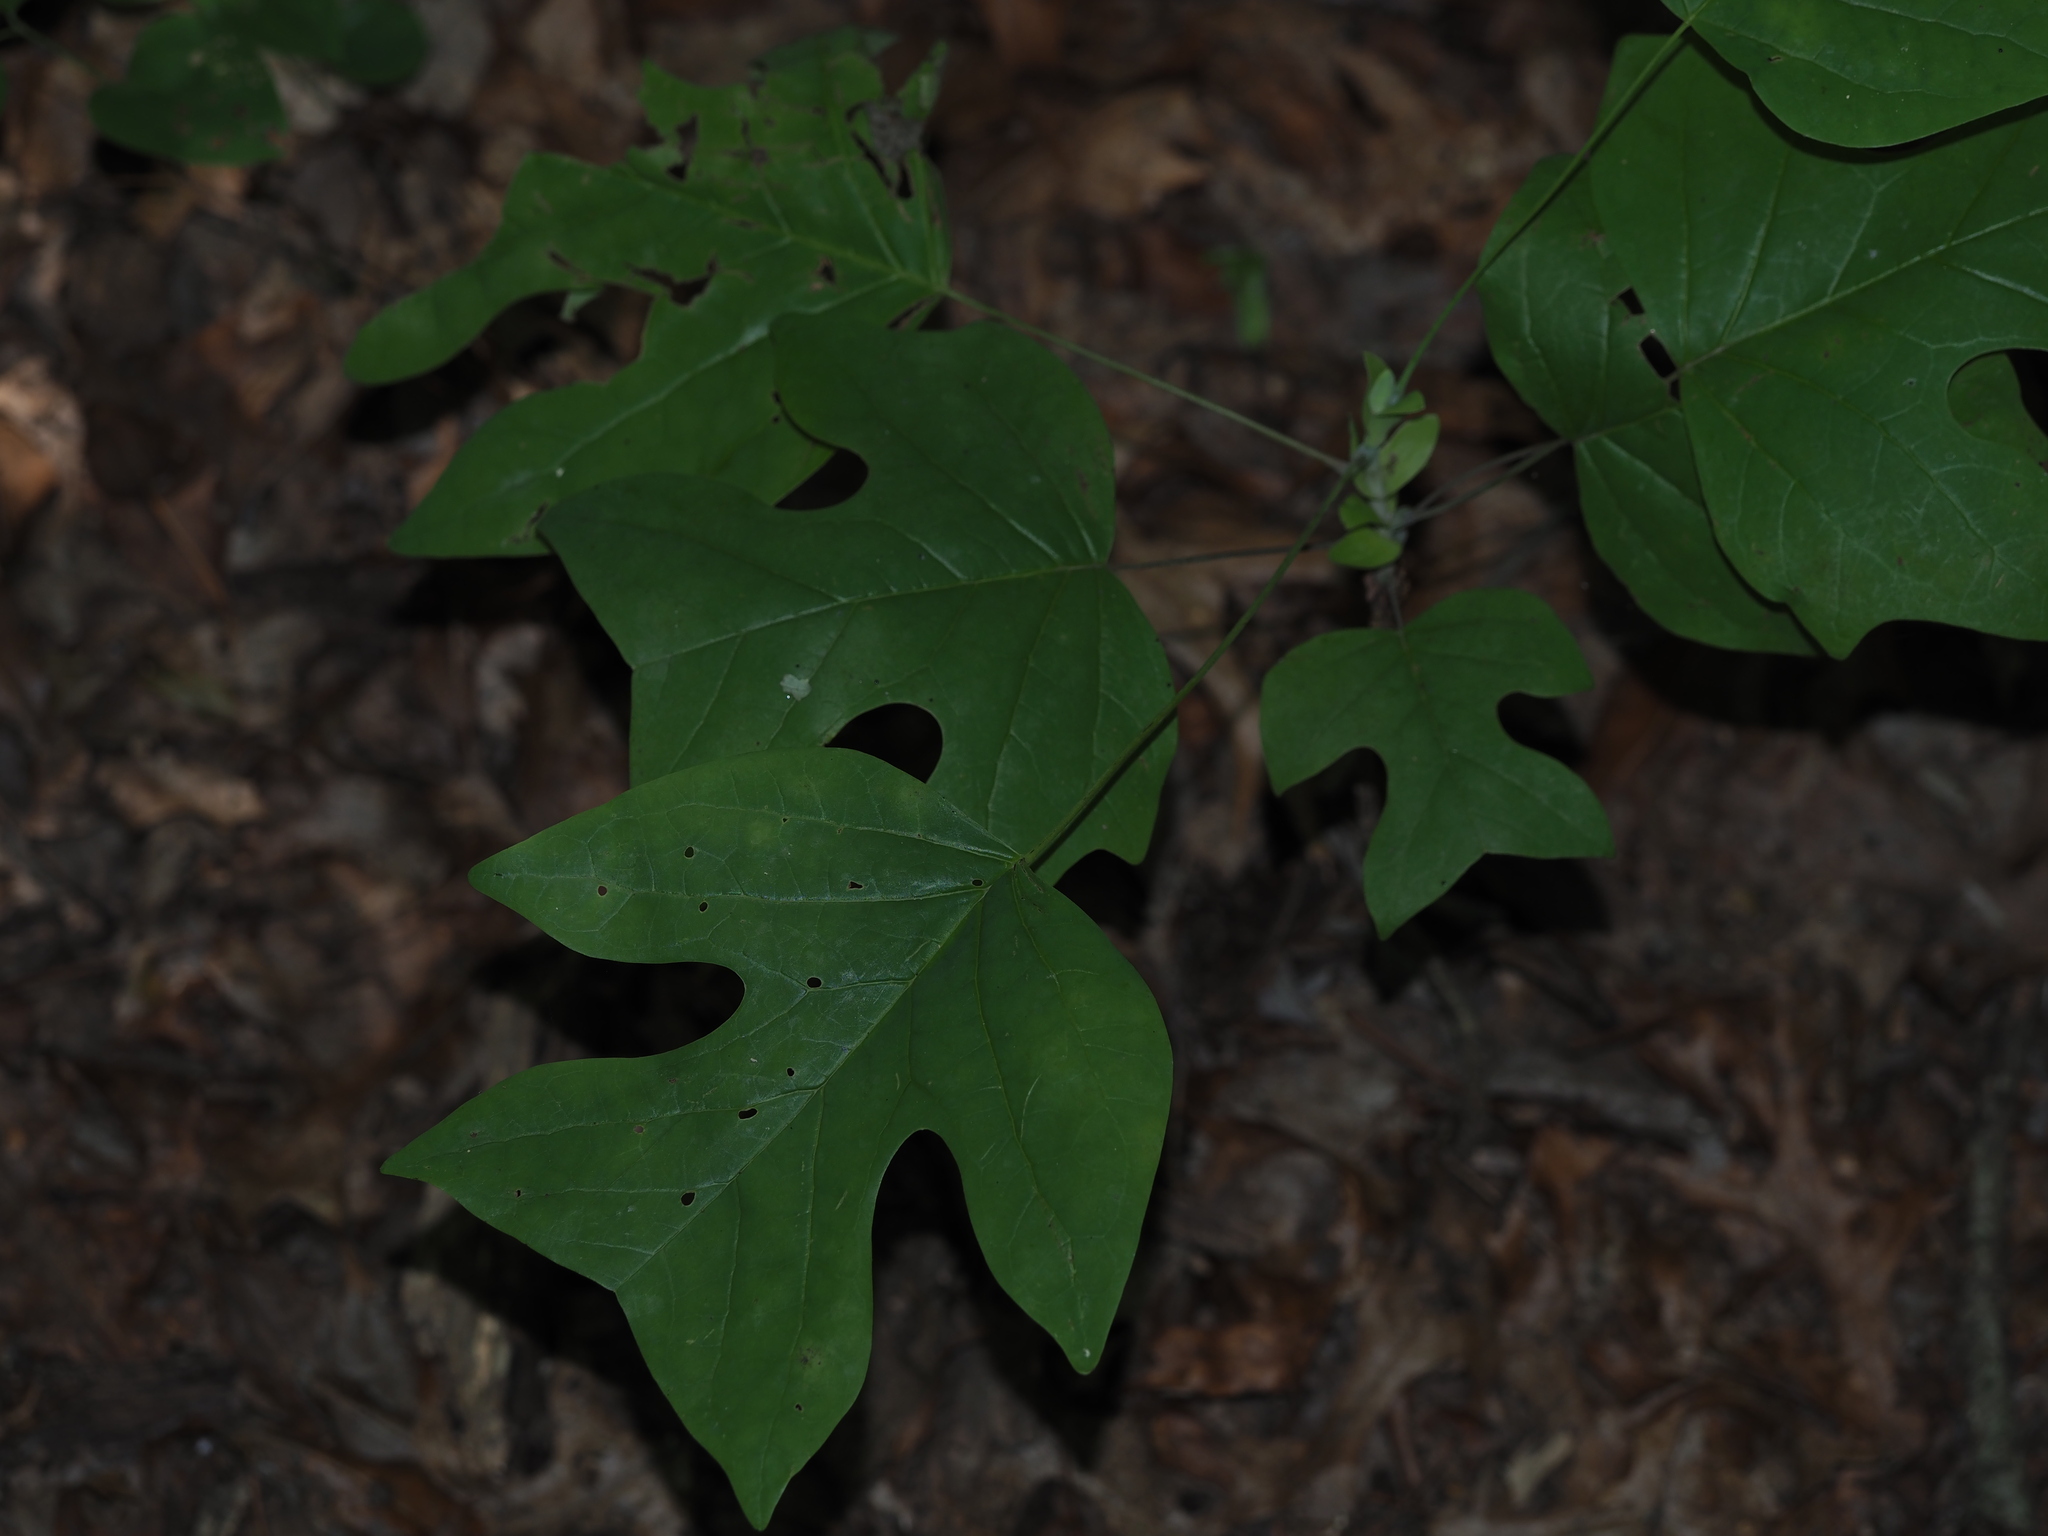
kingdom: Plantae
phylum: Tracheophyta
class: Magnoliopsida
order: Magnoliales
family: Magnoliaceae
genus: Liriodendron
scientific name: Liriodendron tulipifera
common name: Tulip tree
